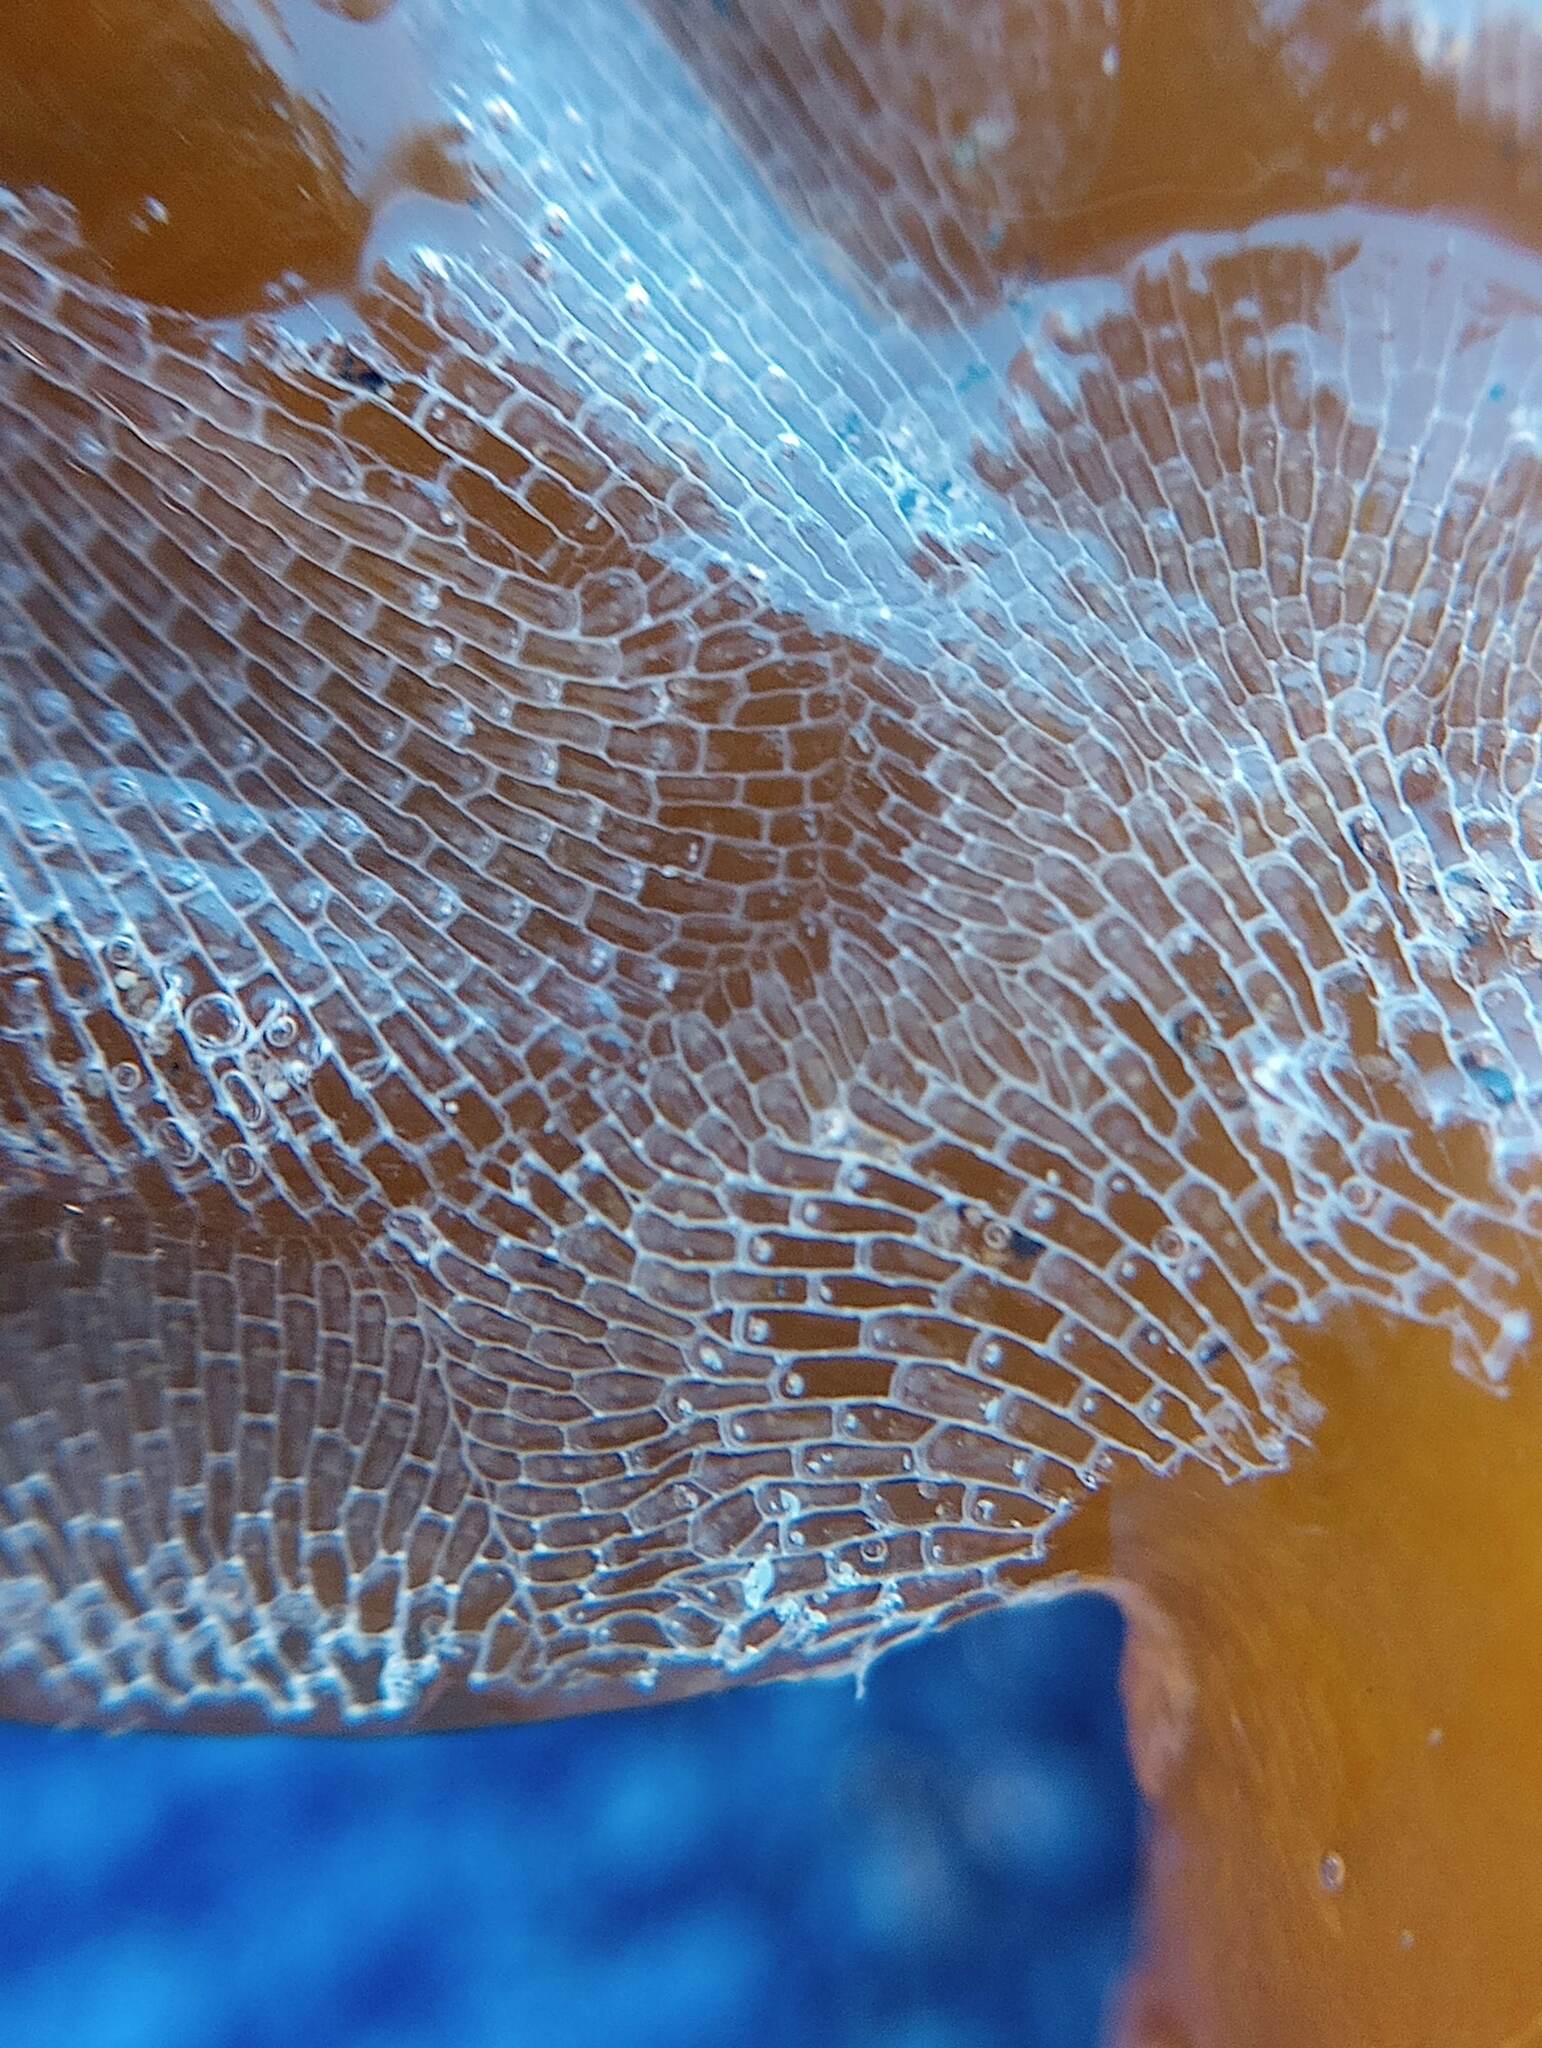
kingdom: Animalia
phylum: Bryozoa
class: Gymnolaemata
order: Cheilostomatida
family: Membraniporidae
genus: Membranipora
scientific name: Membranipora membranacea
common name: Sea mat
